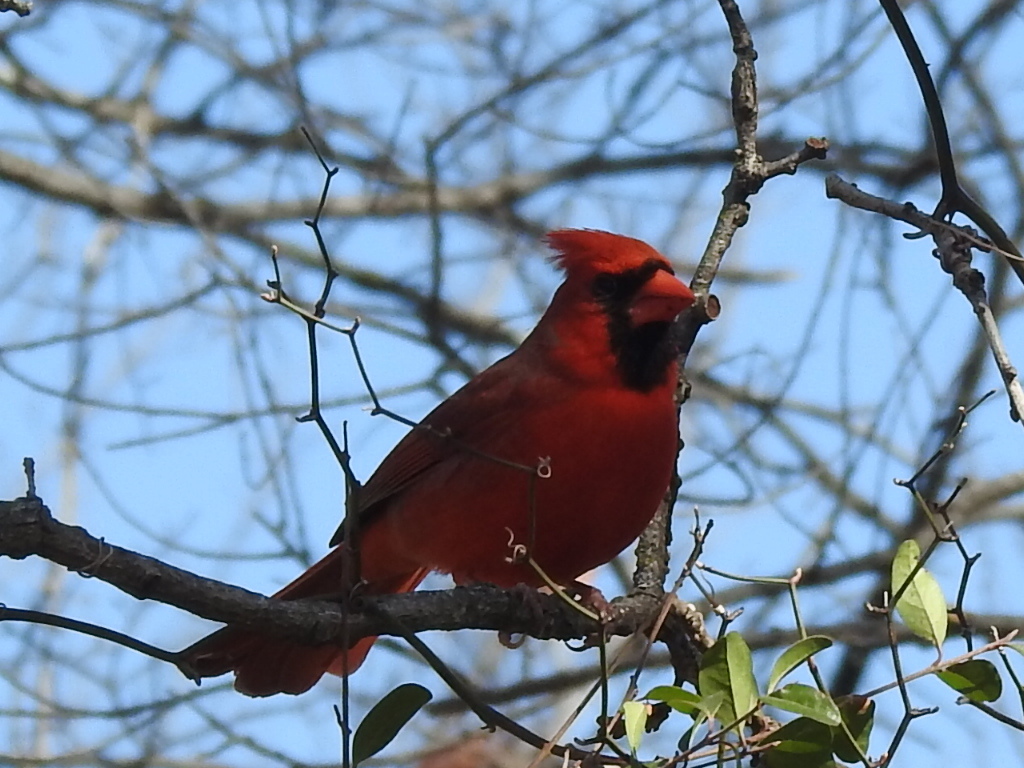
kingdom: Animalia
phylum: Chordata
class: Aves
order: Passeriformes
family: Cardinalidae
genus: Cardinalis
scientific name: Cardinalis cardinalis
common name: Northern cardinal
